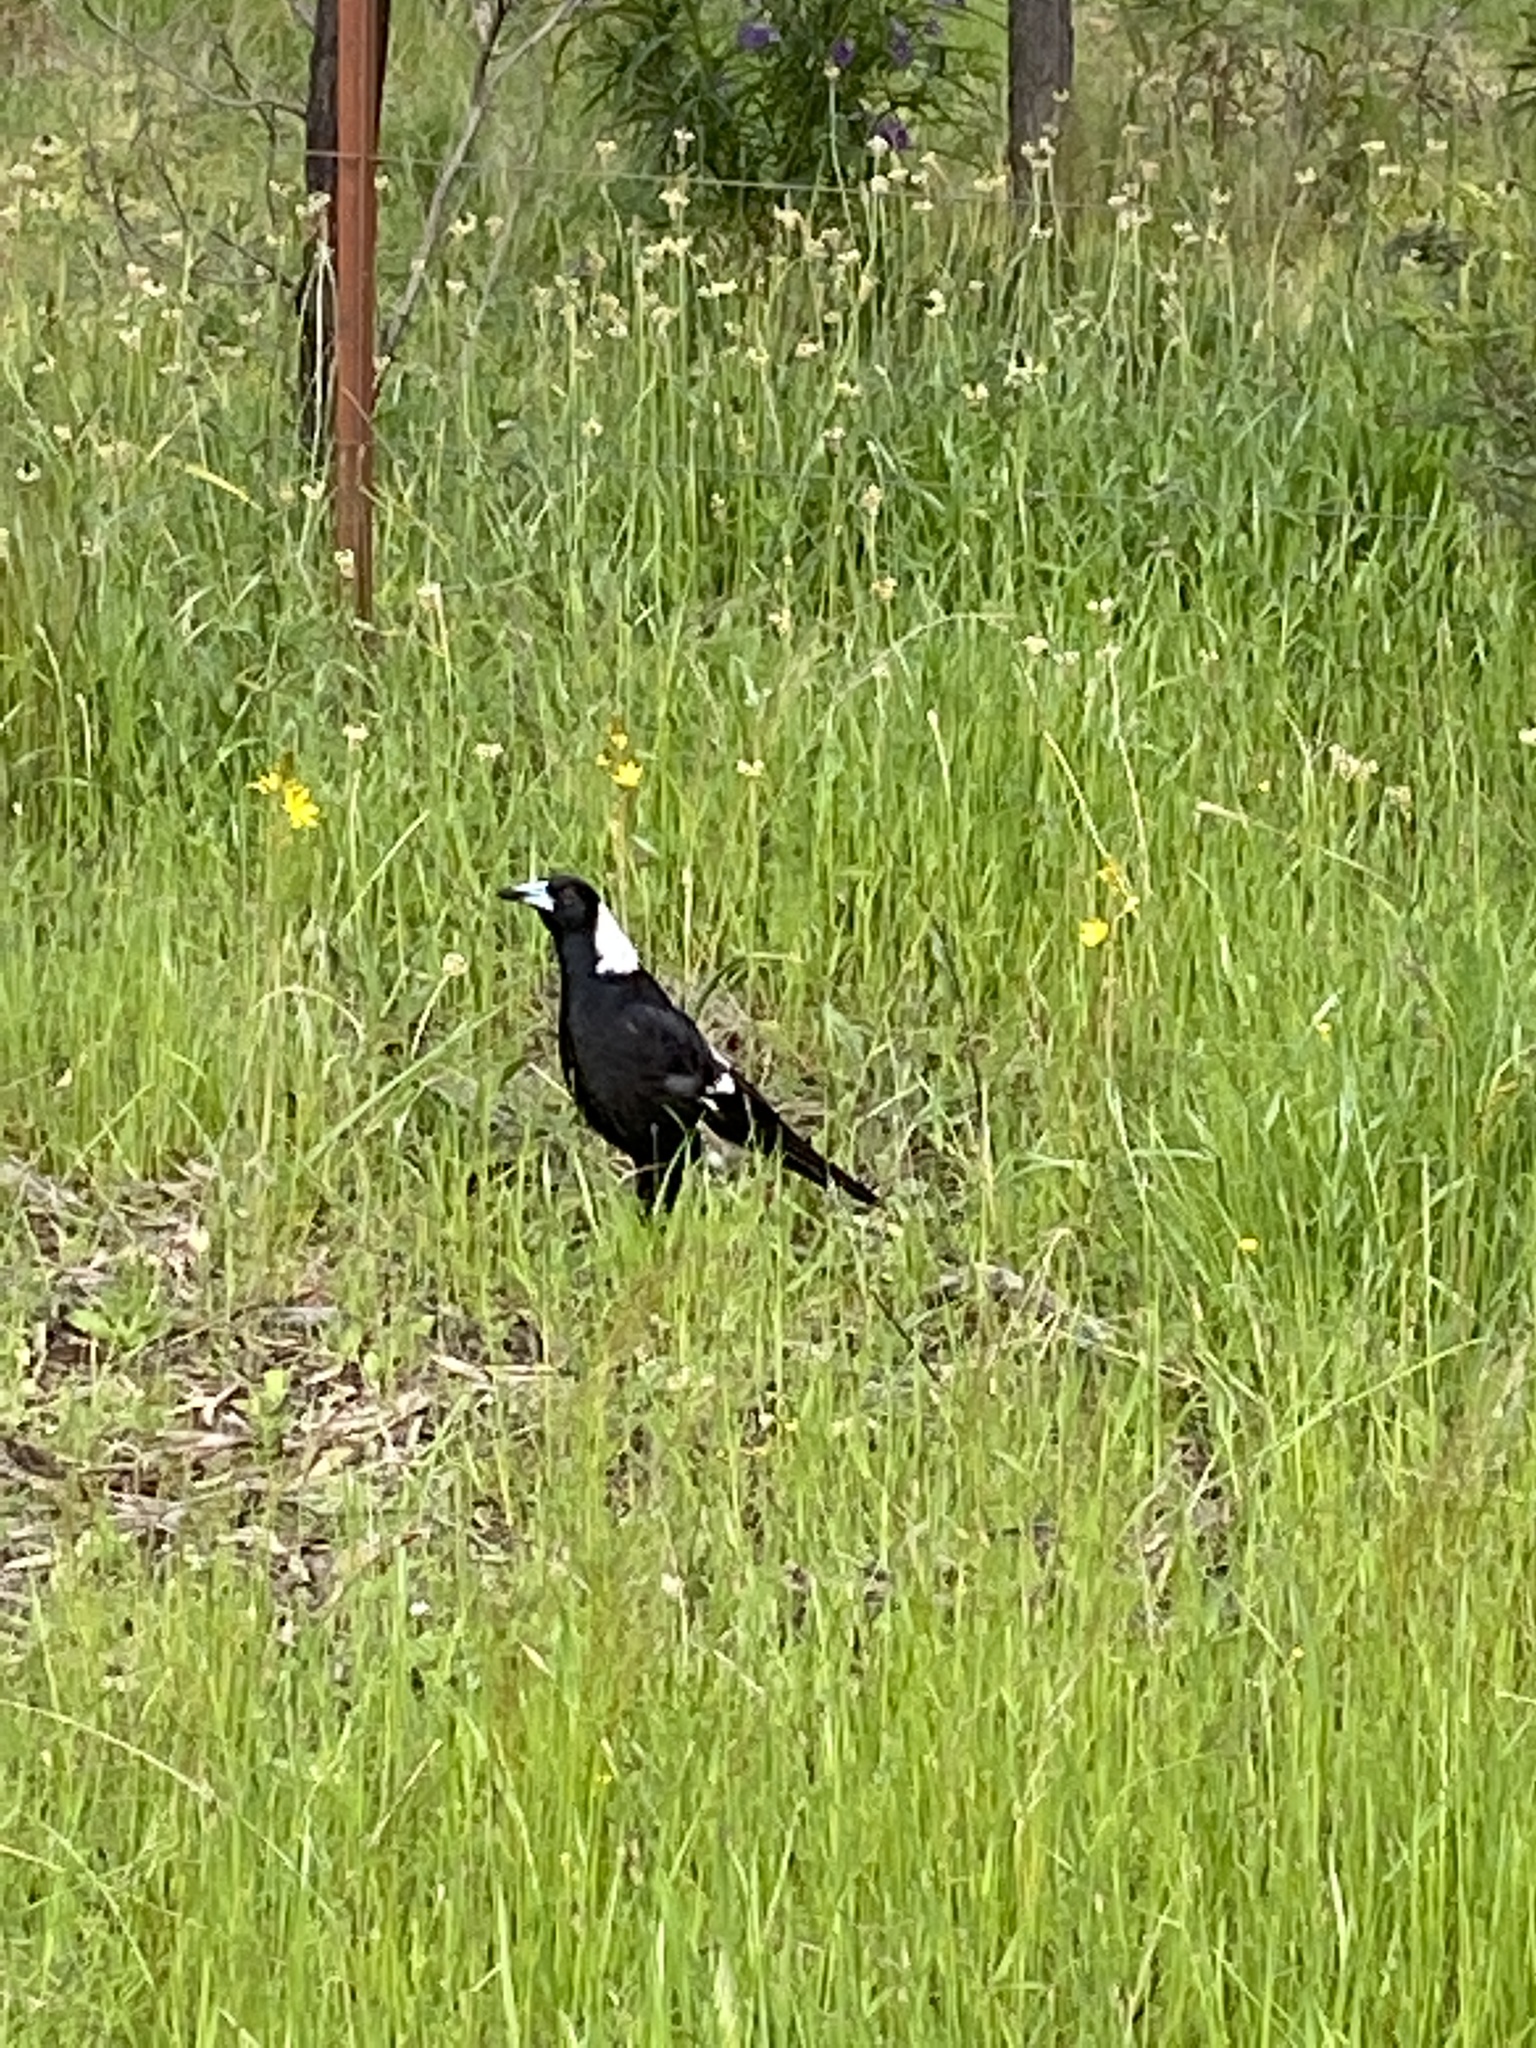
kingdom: Animalia
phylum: Chordata
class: Aves
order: Passeriformes
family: Cracticidae
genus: Gymnorhina
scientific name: Gymnorhina tibicen
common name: Australian magpie
